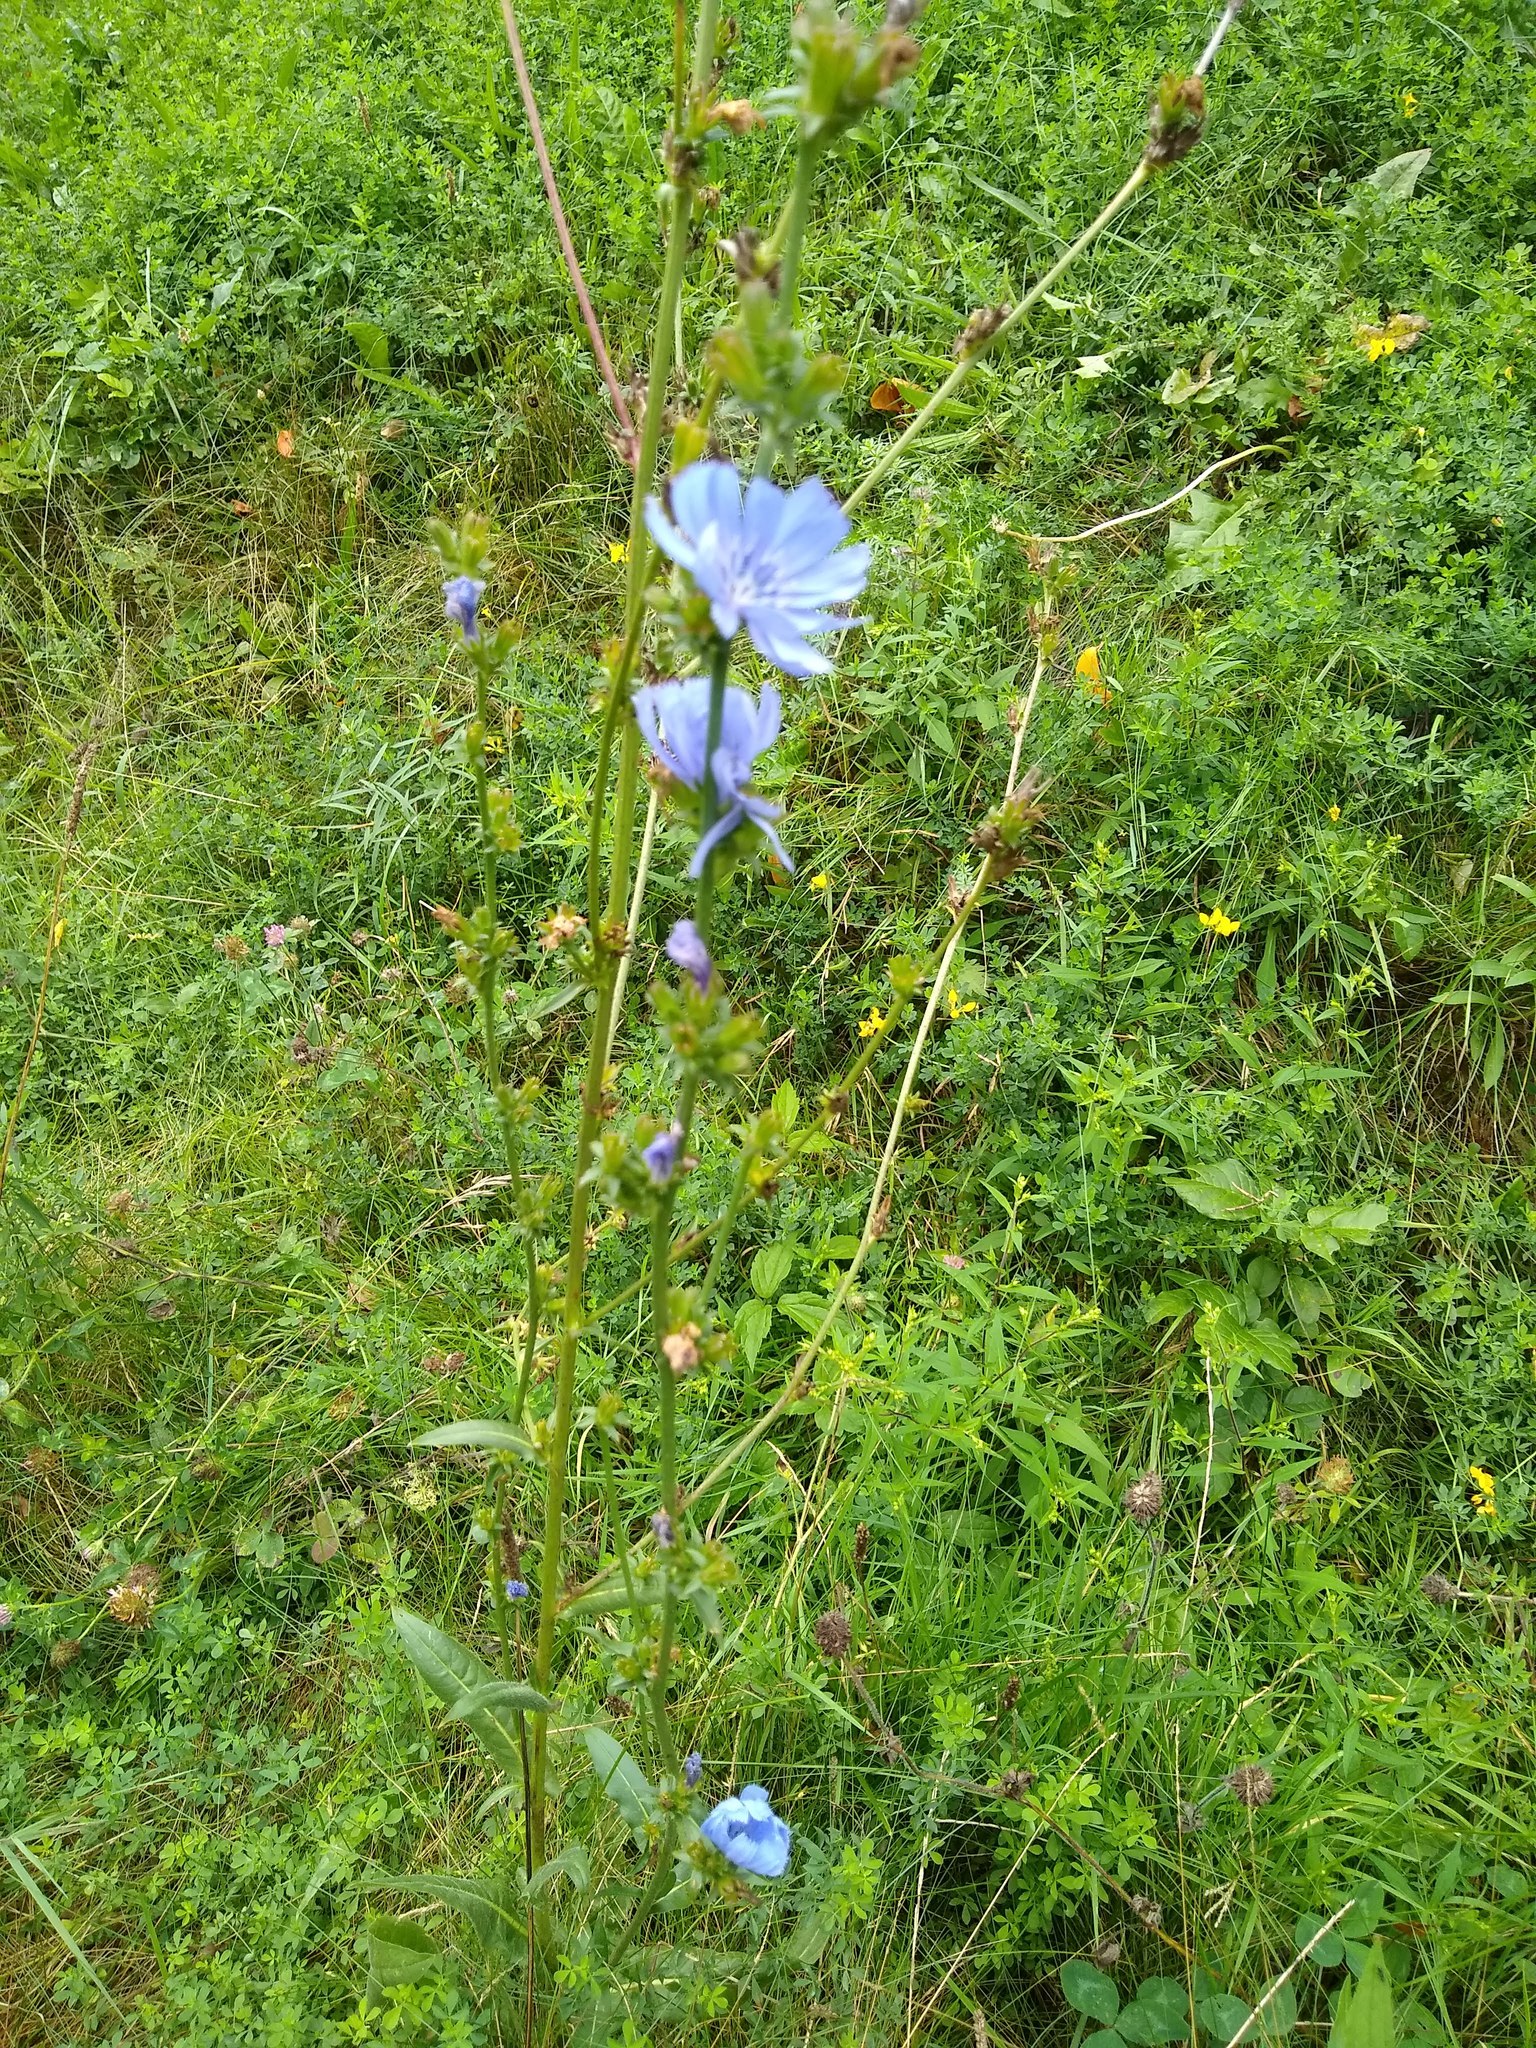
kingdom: Plantae
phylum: Tracheophyta
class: Magnoliopsida
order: Asterales
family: Asteraceae
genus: Cichorium
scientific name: Cichorium intybus
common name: Chicory
